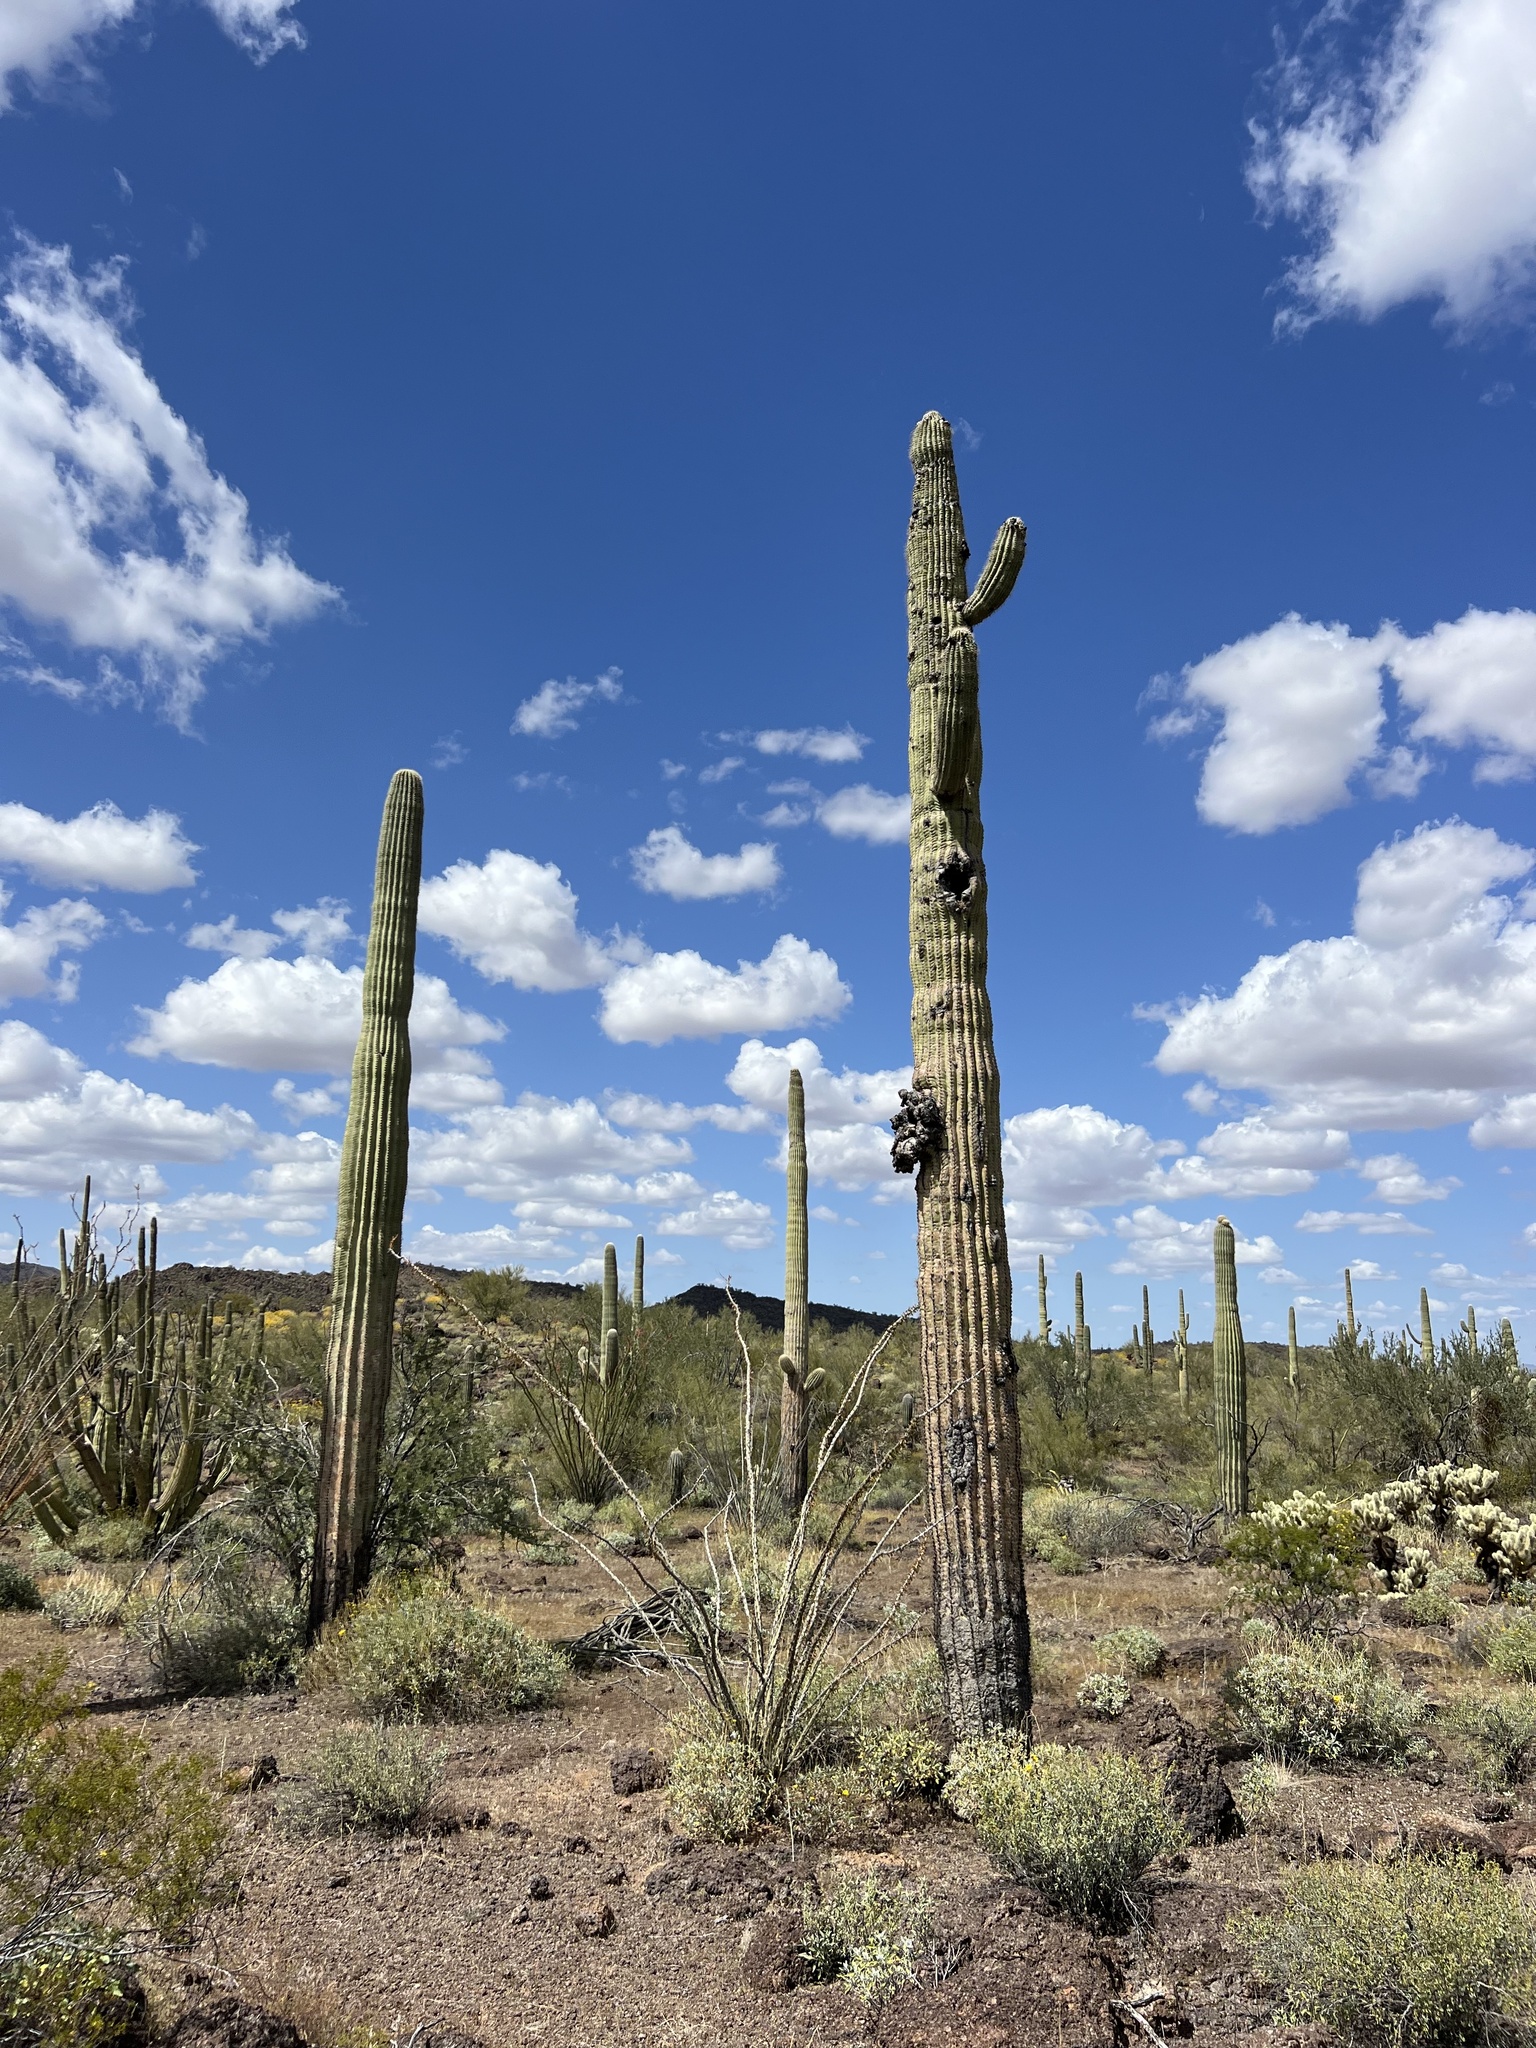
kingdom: Plantae
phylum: Tracheophyta
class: Magnoliopsida
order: Caryophyllales
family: Cactaceae
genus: Carnegiea
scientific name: Carnegiea gigantea
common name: Saguaro
